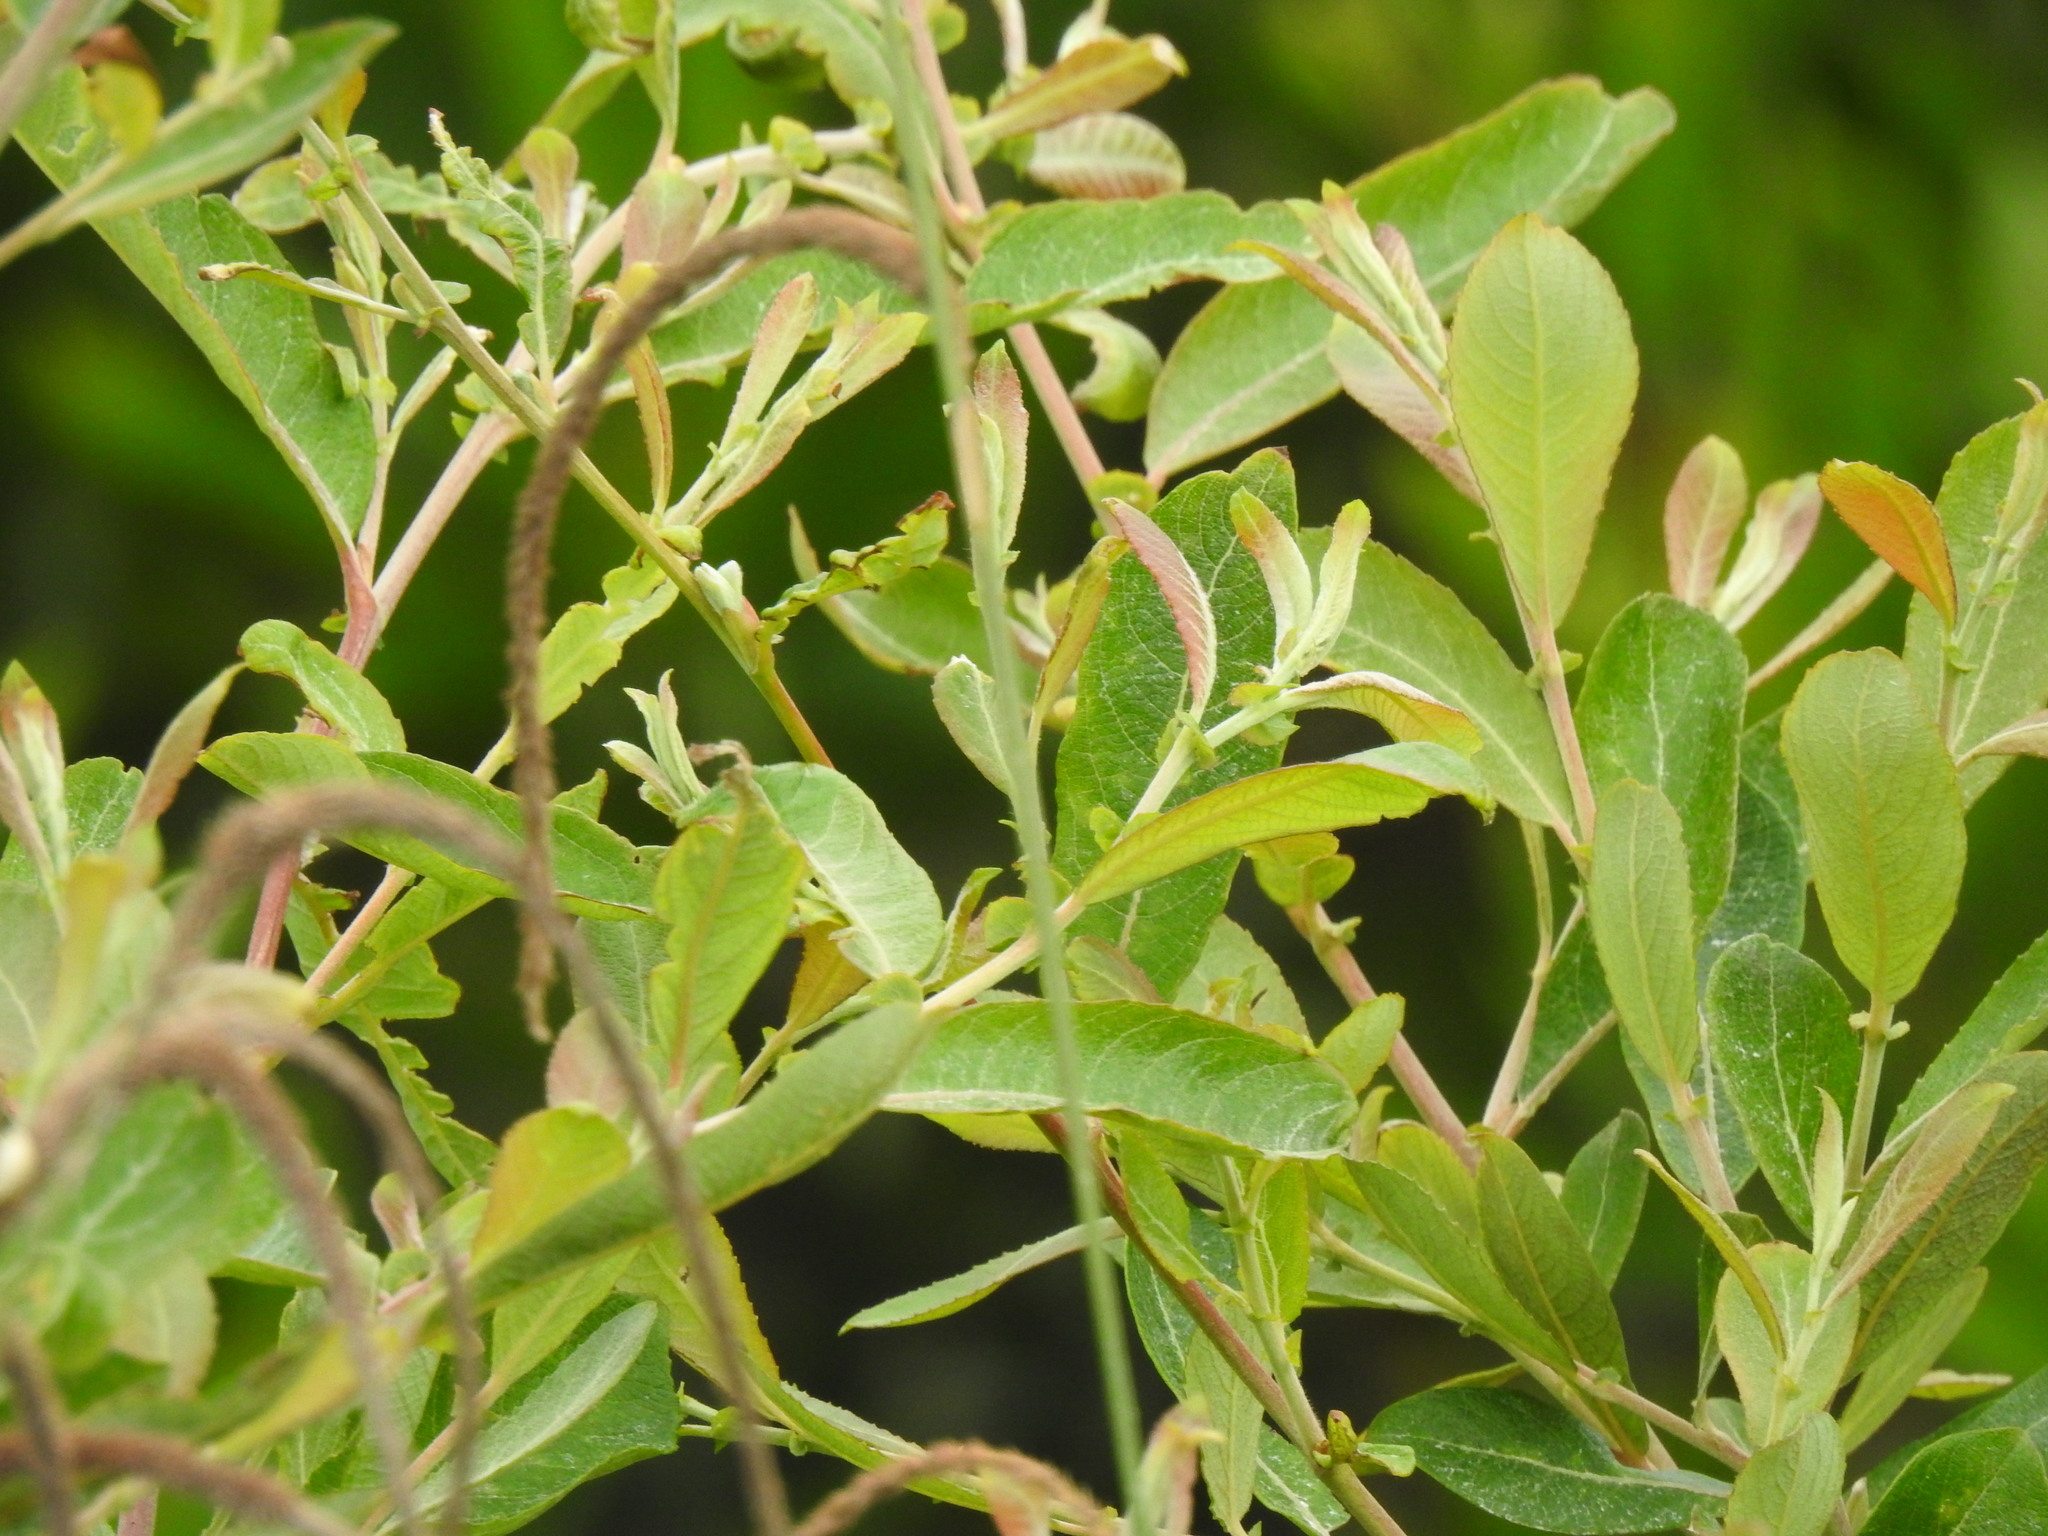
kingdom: Plantae
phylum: Tracheophyta
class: Magnoliopsida
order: Malpighiales
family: Salicaceae
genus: Salix
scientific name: Salix atrocinerea
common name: Rusty willow
